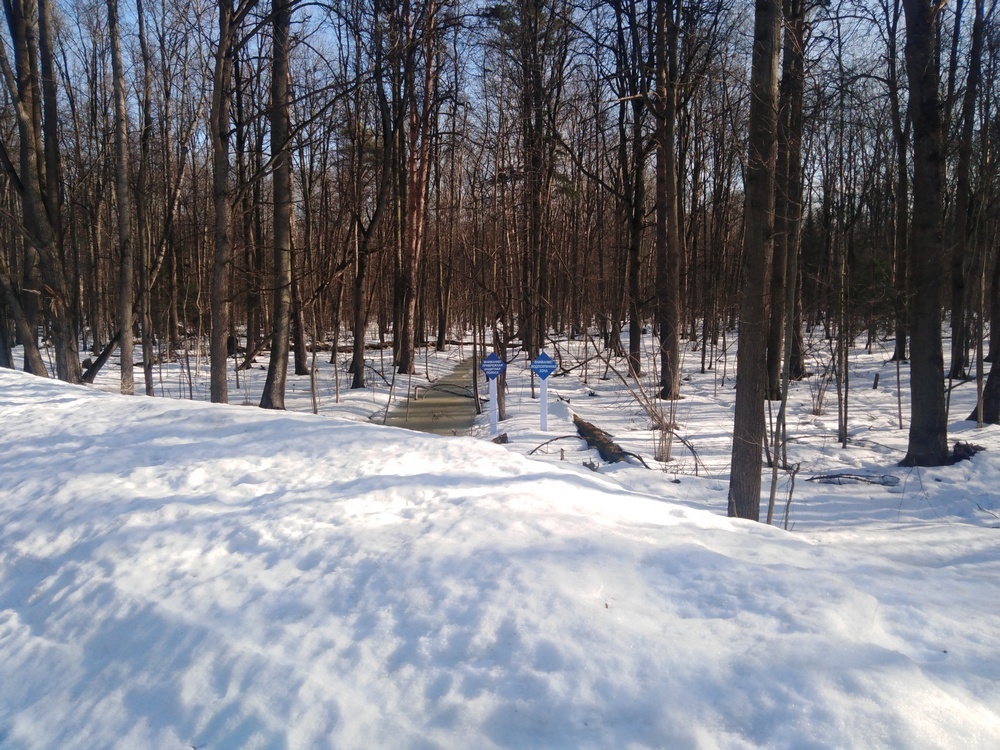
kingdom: Animalia
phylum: Chordata
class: Aves
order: Passeriformes
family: Sittidae
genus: Sitta
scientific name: Sitta europaea
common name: Eurasian nuthatch
